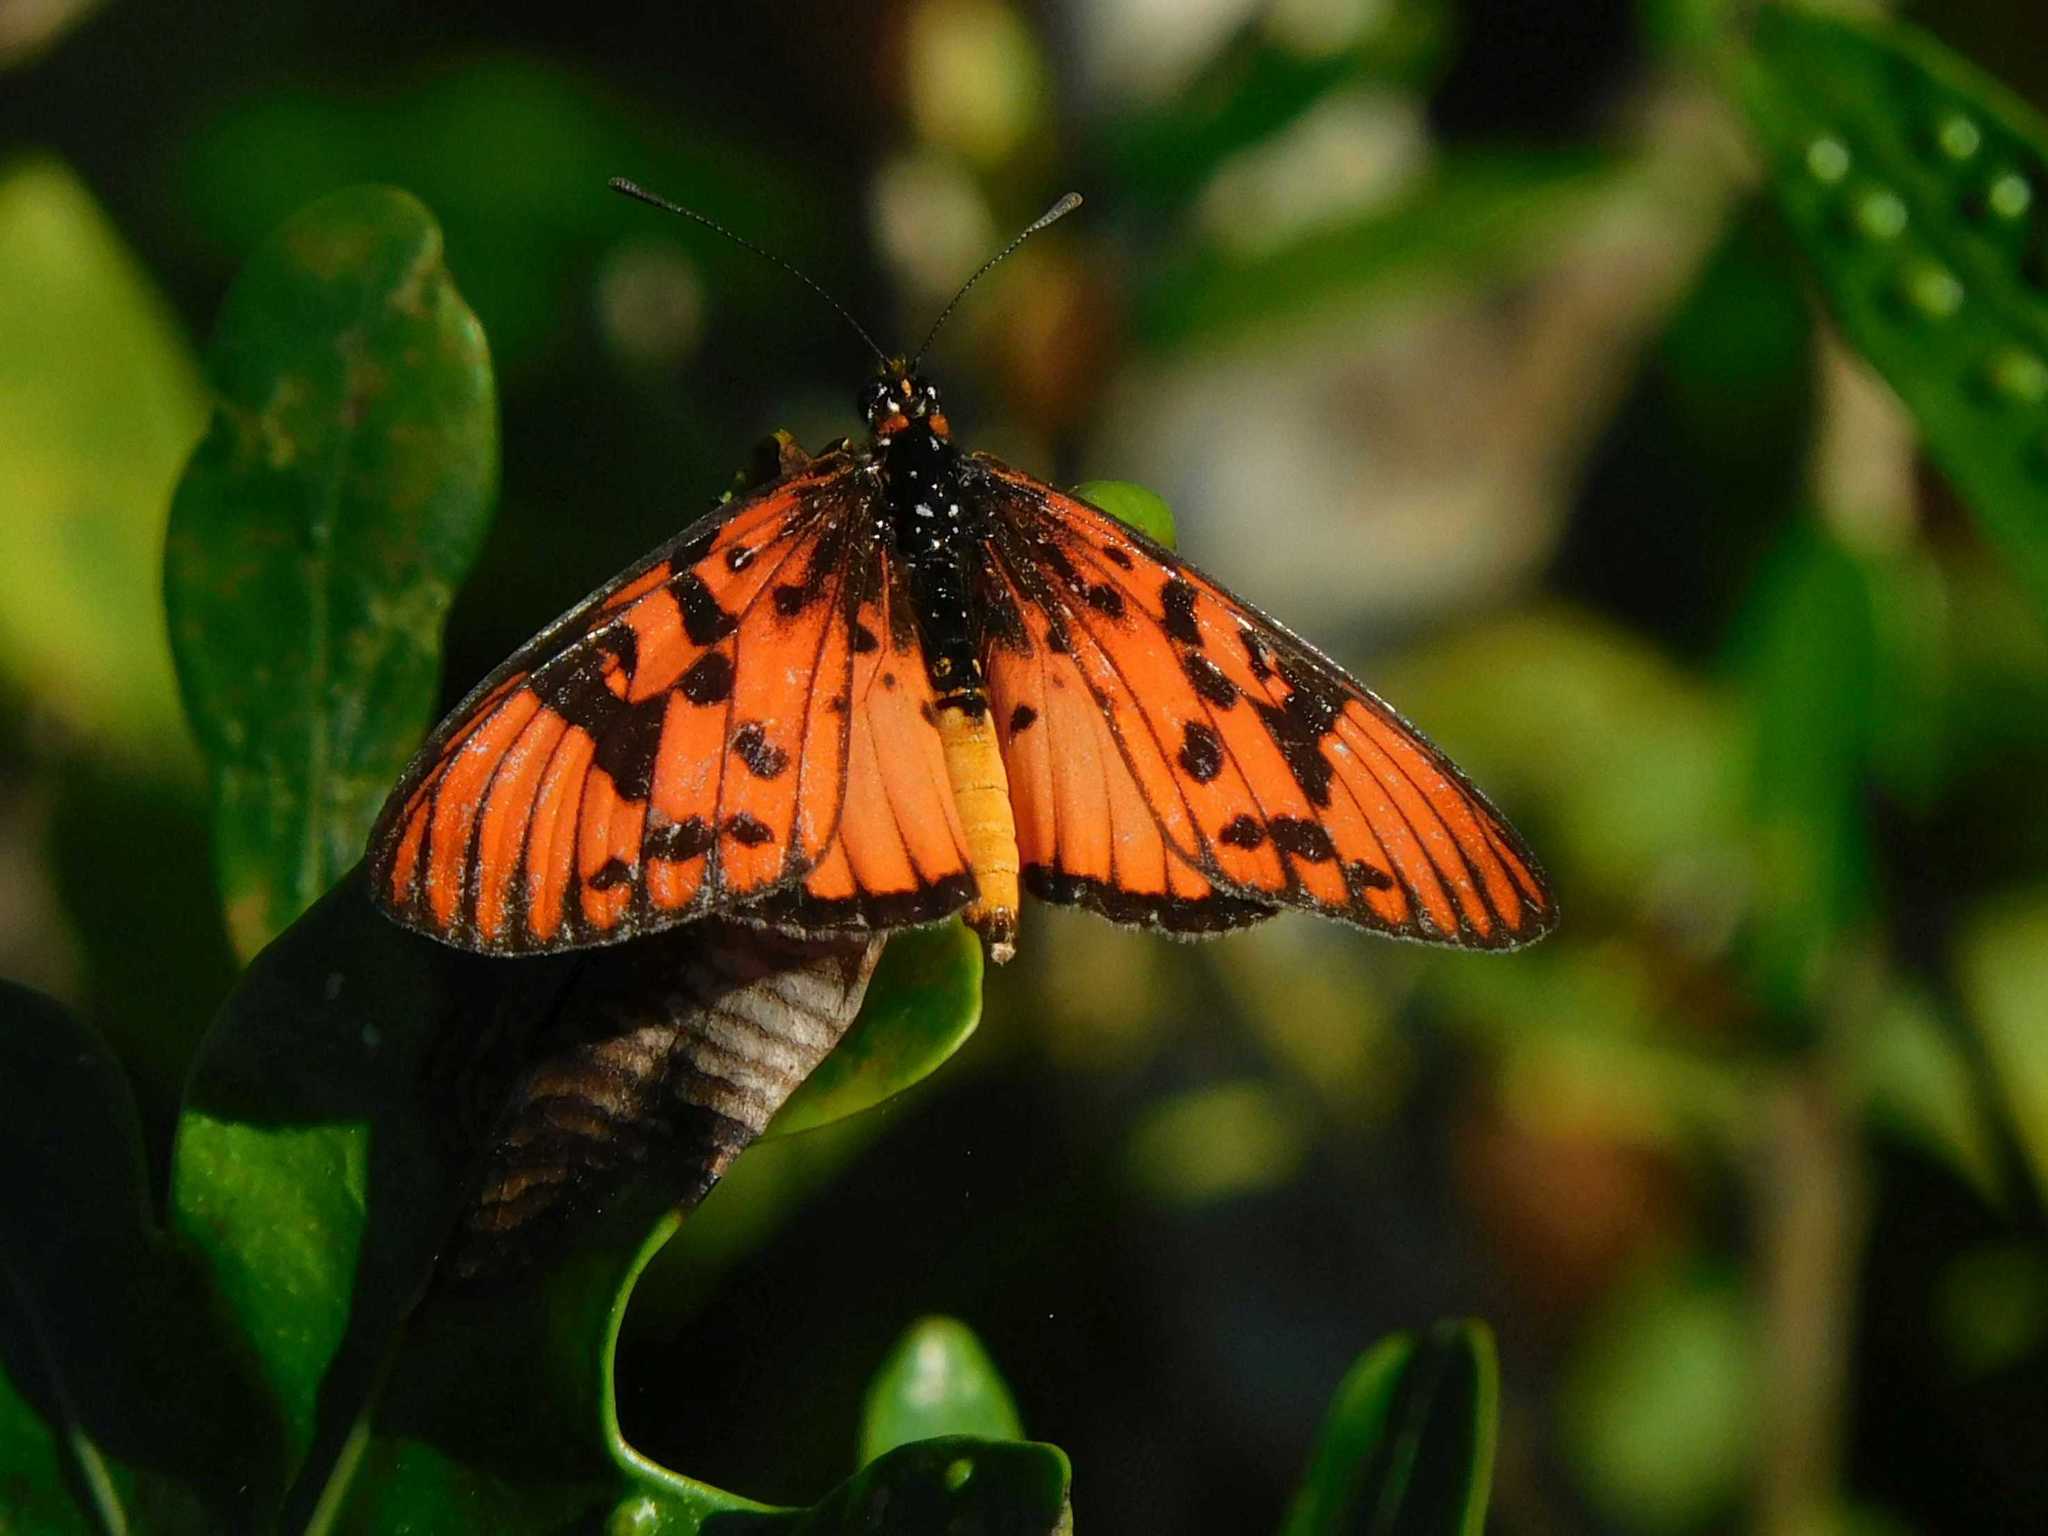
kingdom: Animalia
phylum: Arthropoda
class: Insecta
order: Lepidoptera
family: Nymphalidae
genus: Rubraea
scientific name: Rubraea
